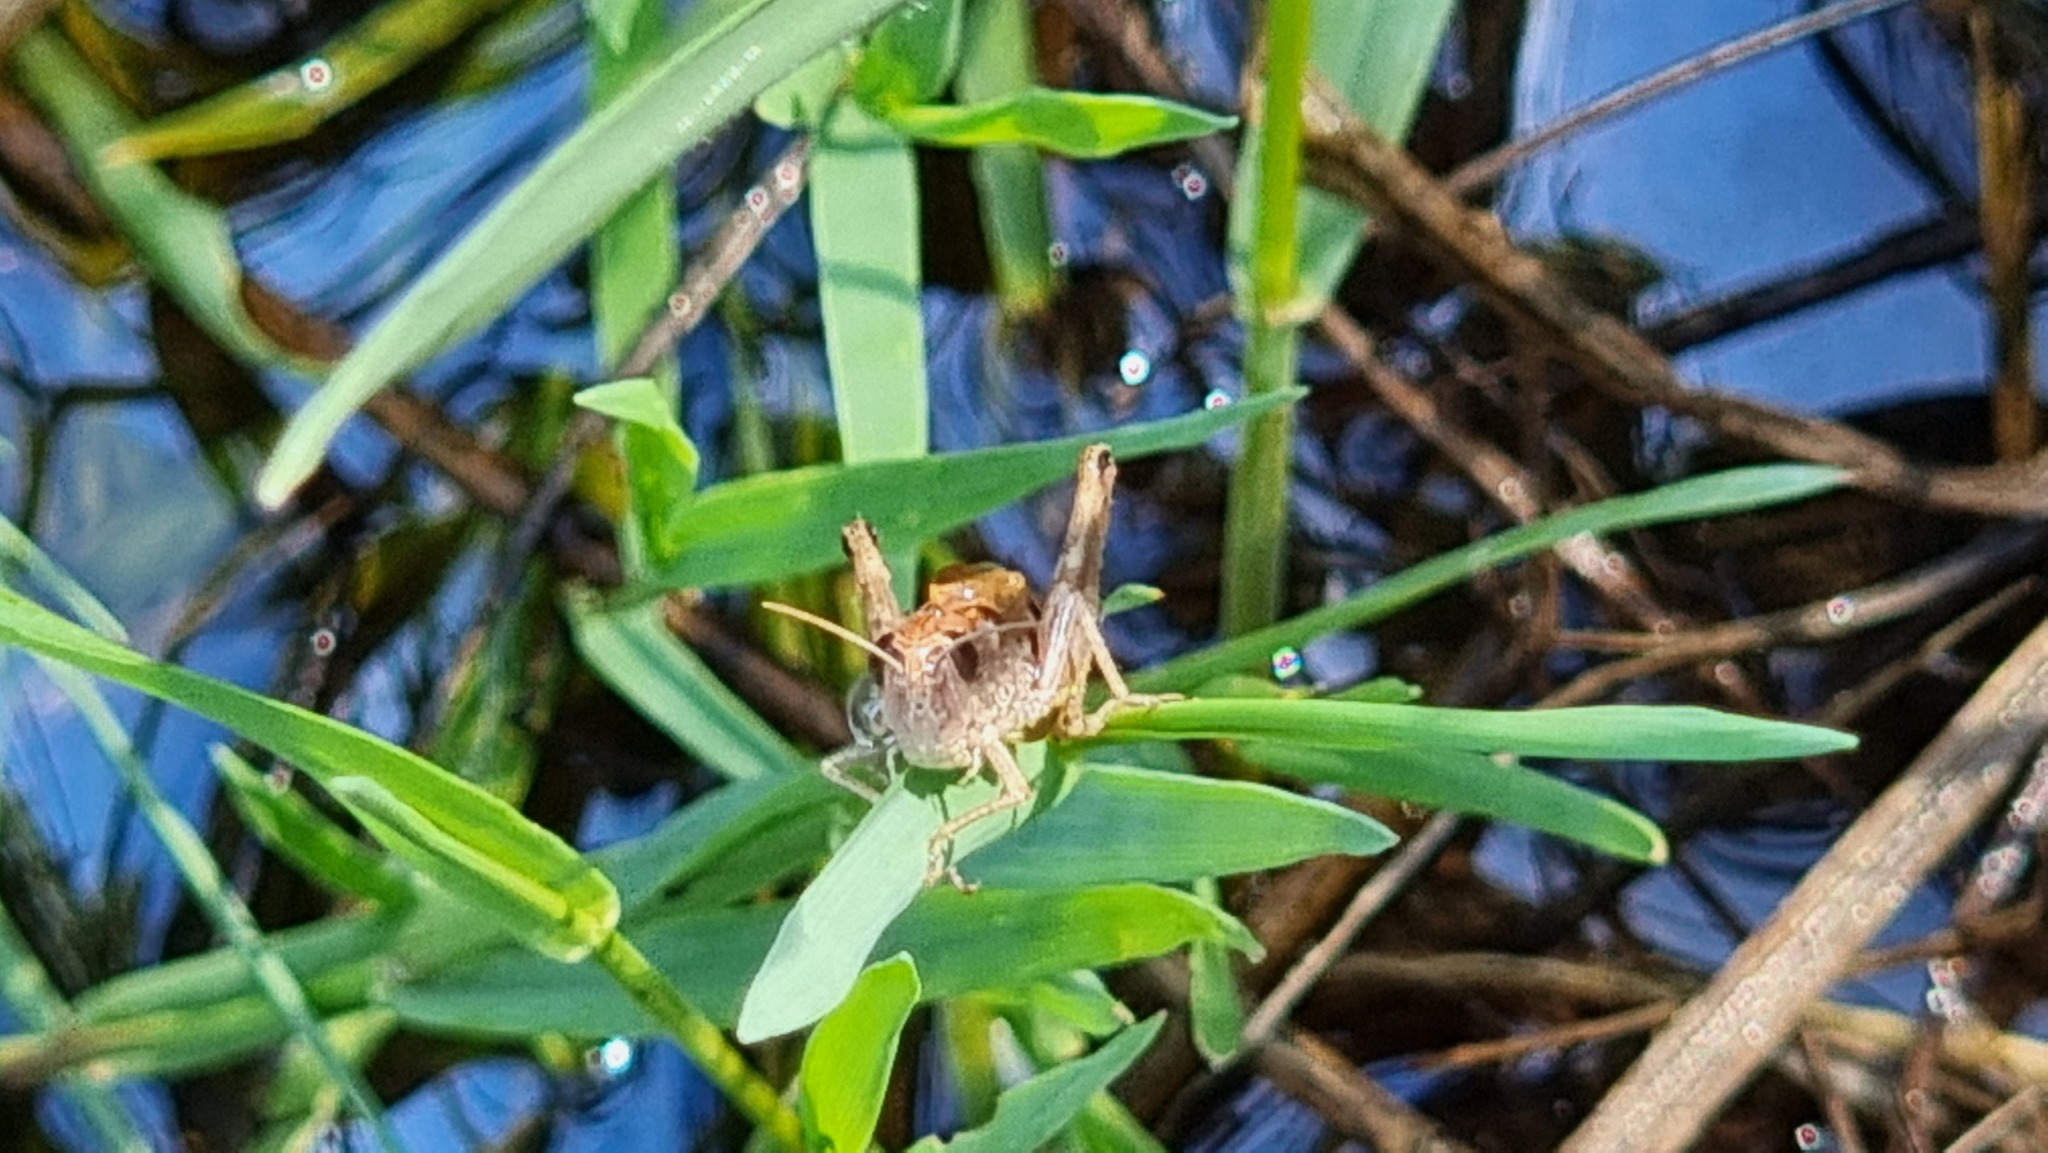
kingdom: Animalia
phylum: Arthropoda
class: Insecta
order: Orthoptera
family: Acrididae
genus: Pseudochorthippus
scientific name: Pseudochorthippus parallelus
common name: Meadow grasshopper
